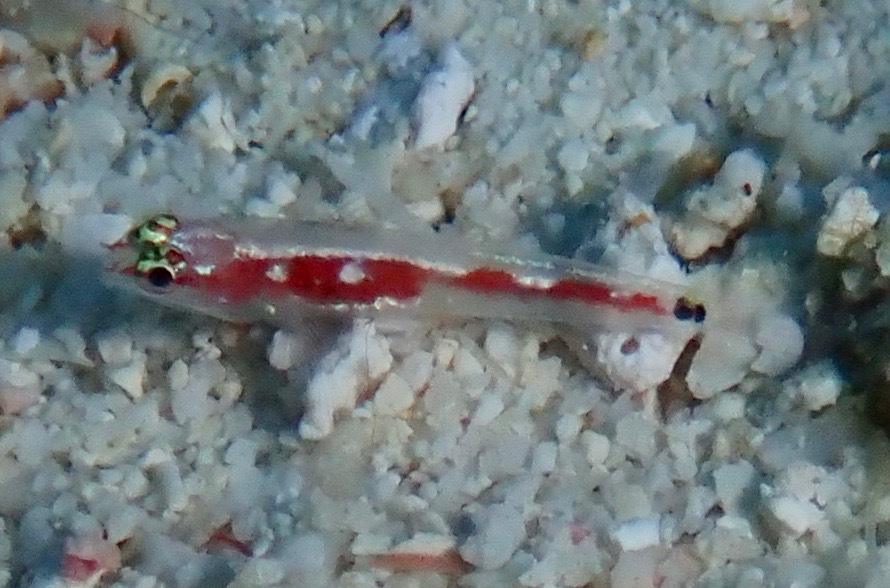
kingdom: Animalia
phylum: Chordata
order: Perciformes
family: Gobiidae
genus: Eviota
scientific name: Eviota oculineata
